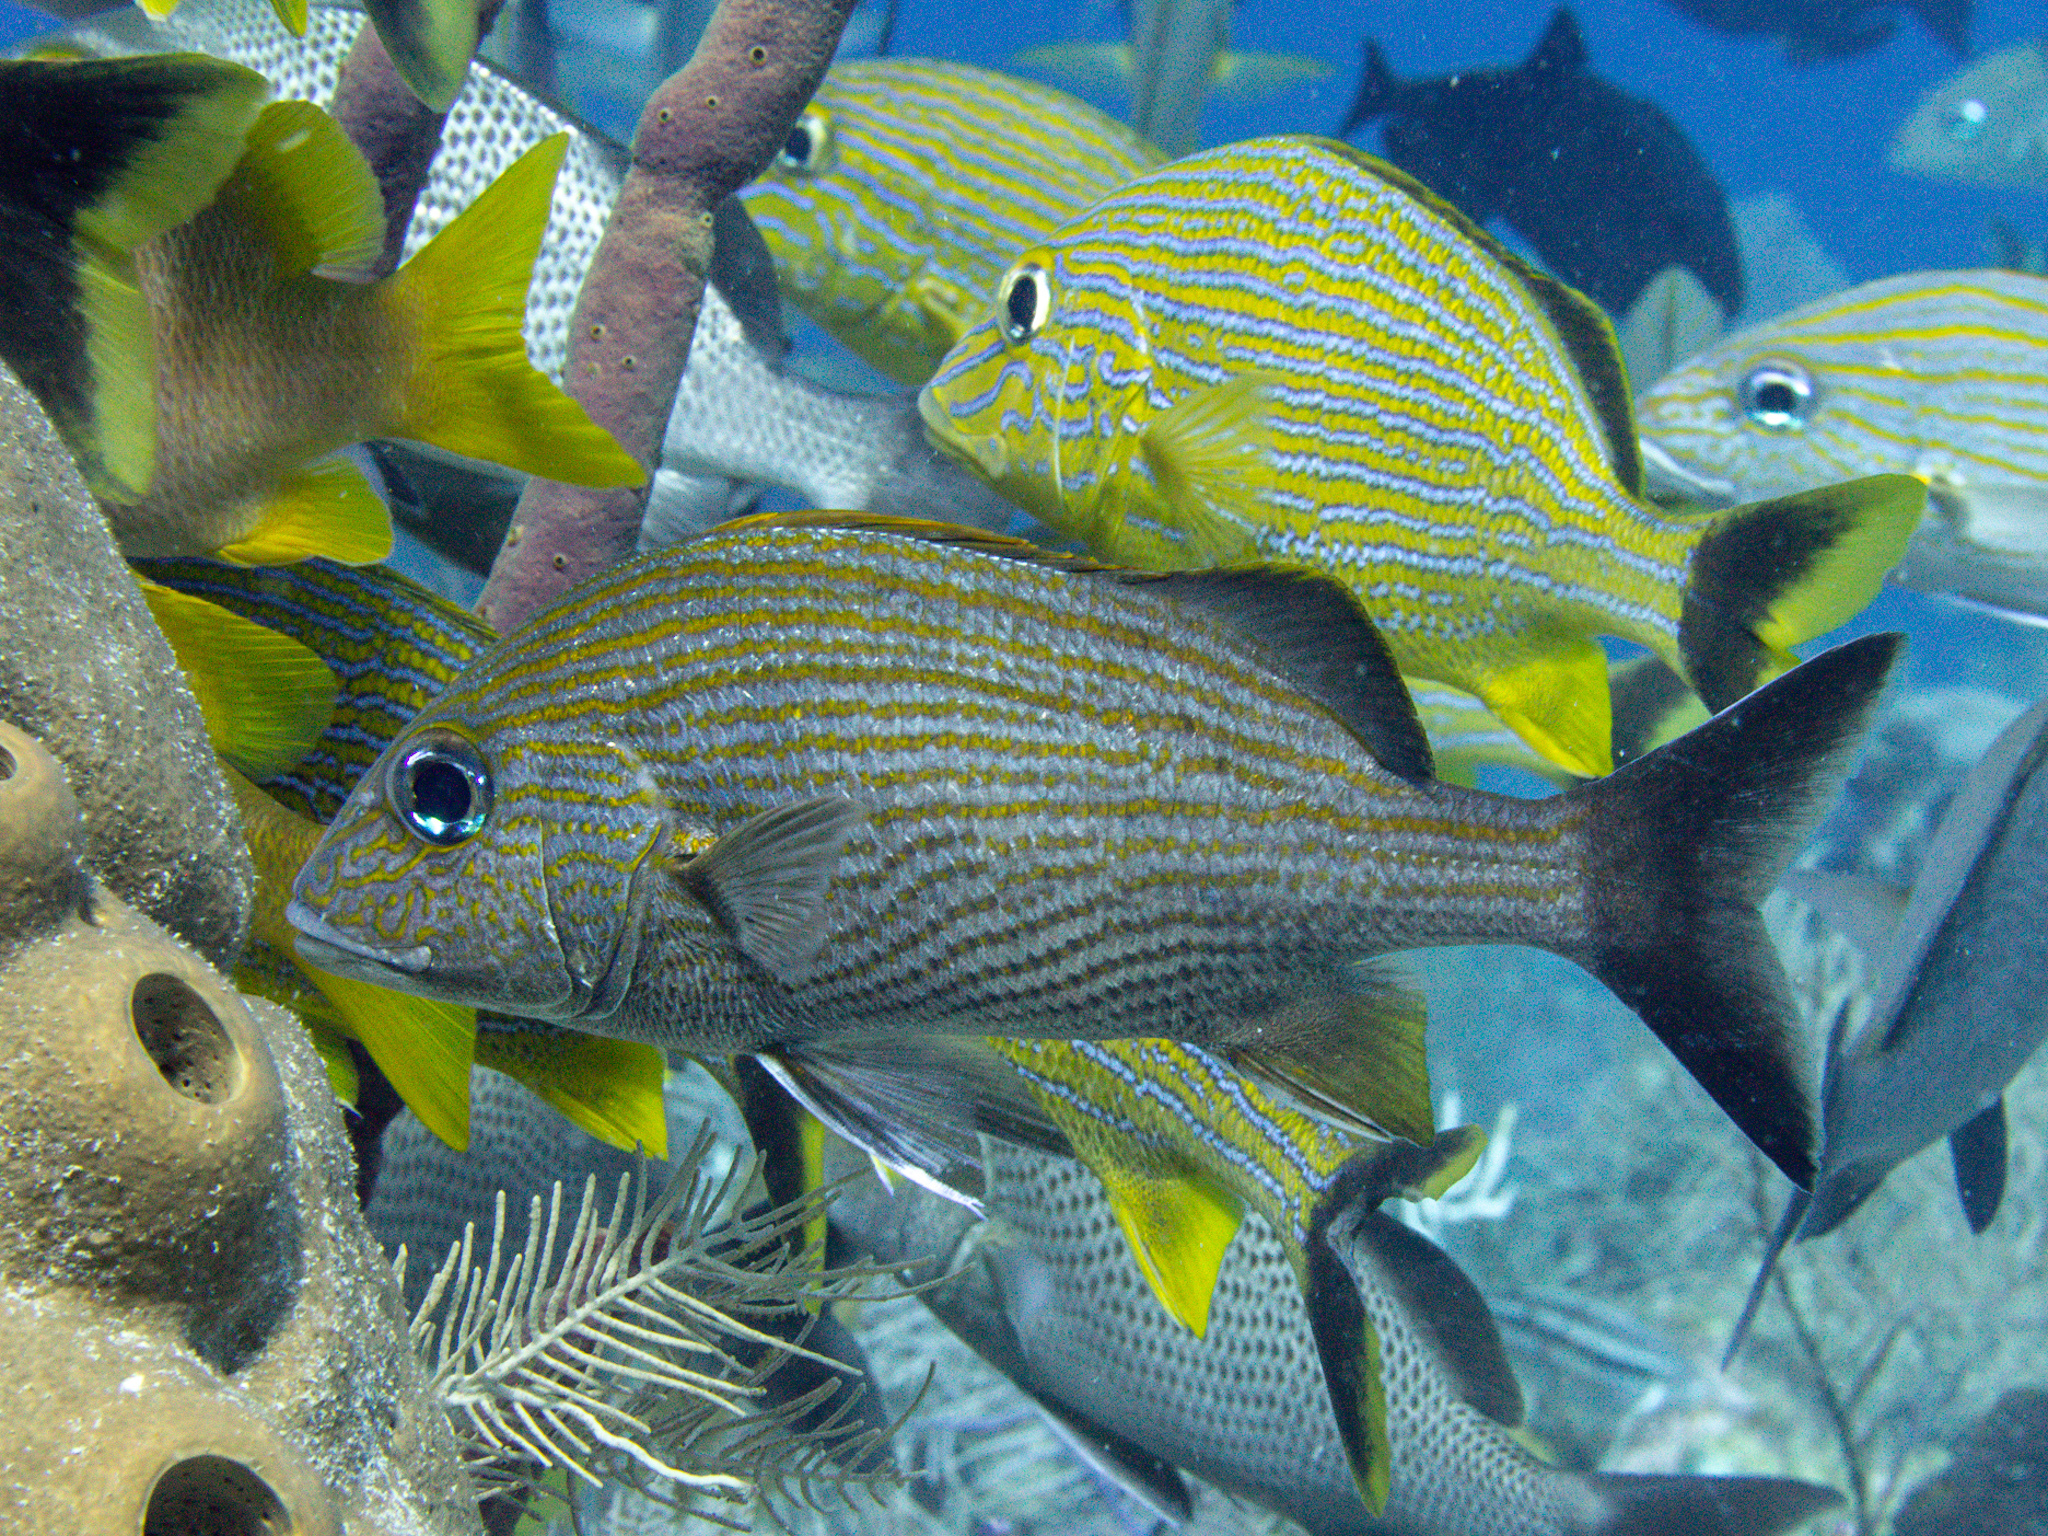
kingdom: Animalia
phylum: Chordata
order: Perciformes
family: Haemulidae
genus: Haemulon
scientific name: Haemulon carbonarium
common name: Caesar grunt
